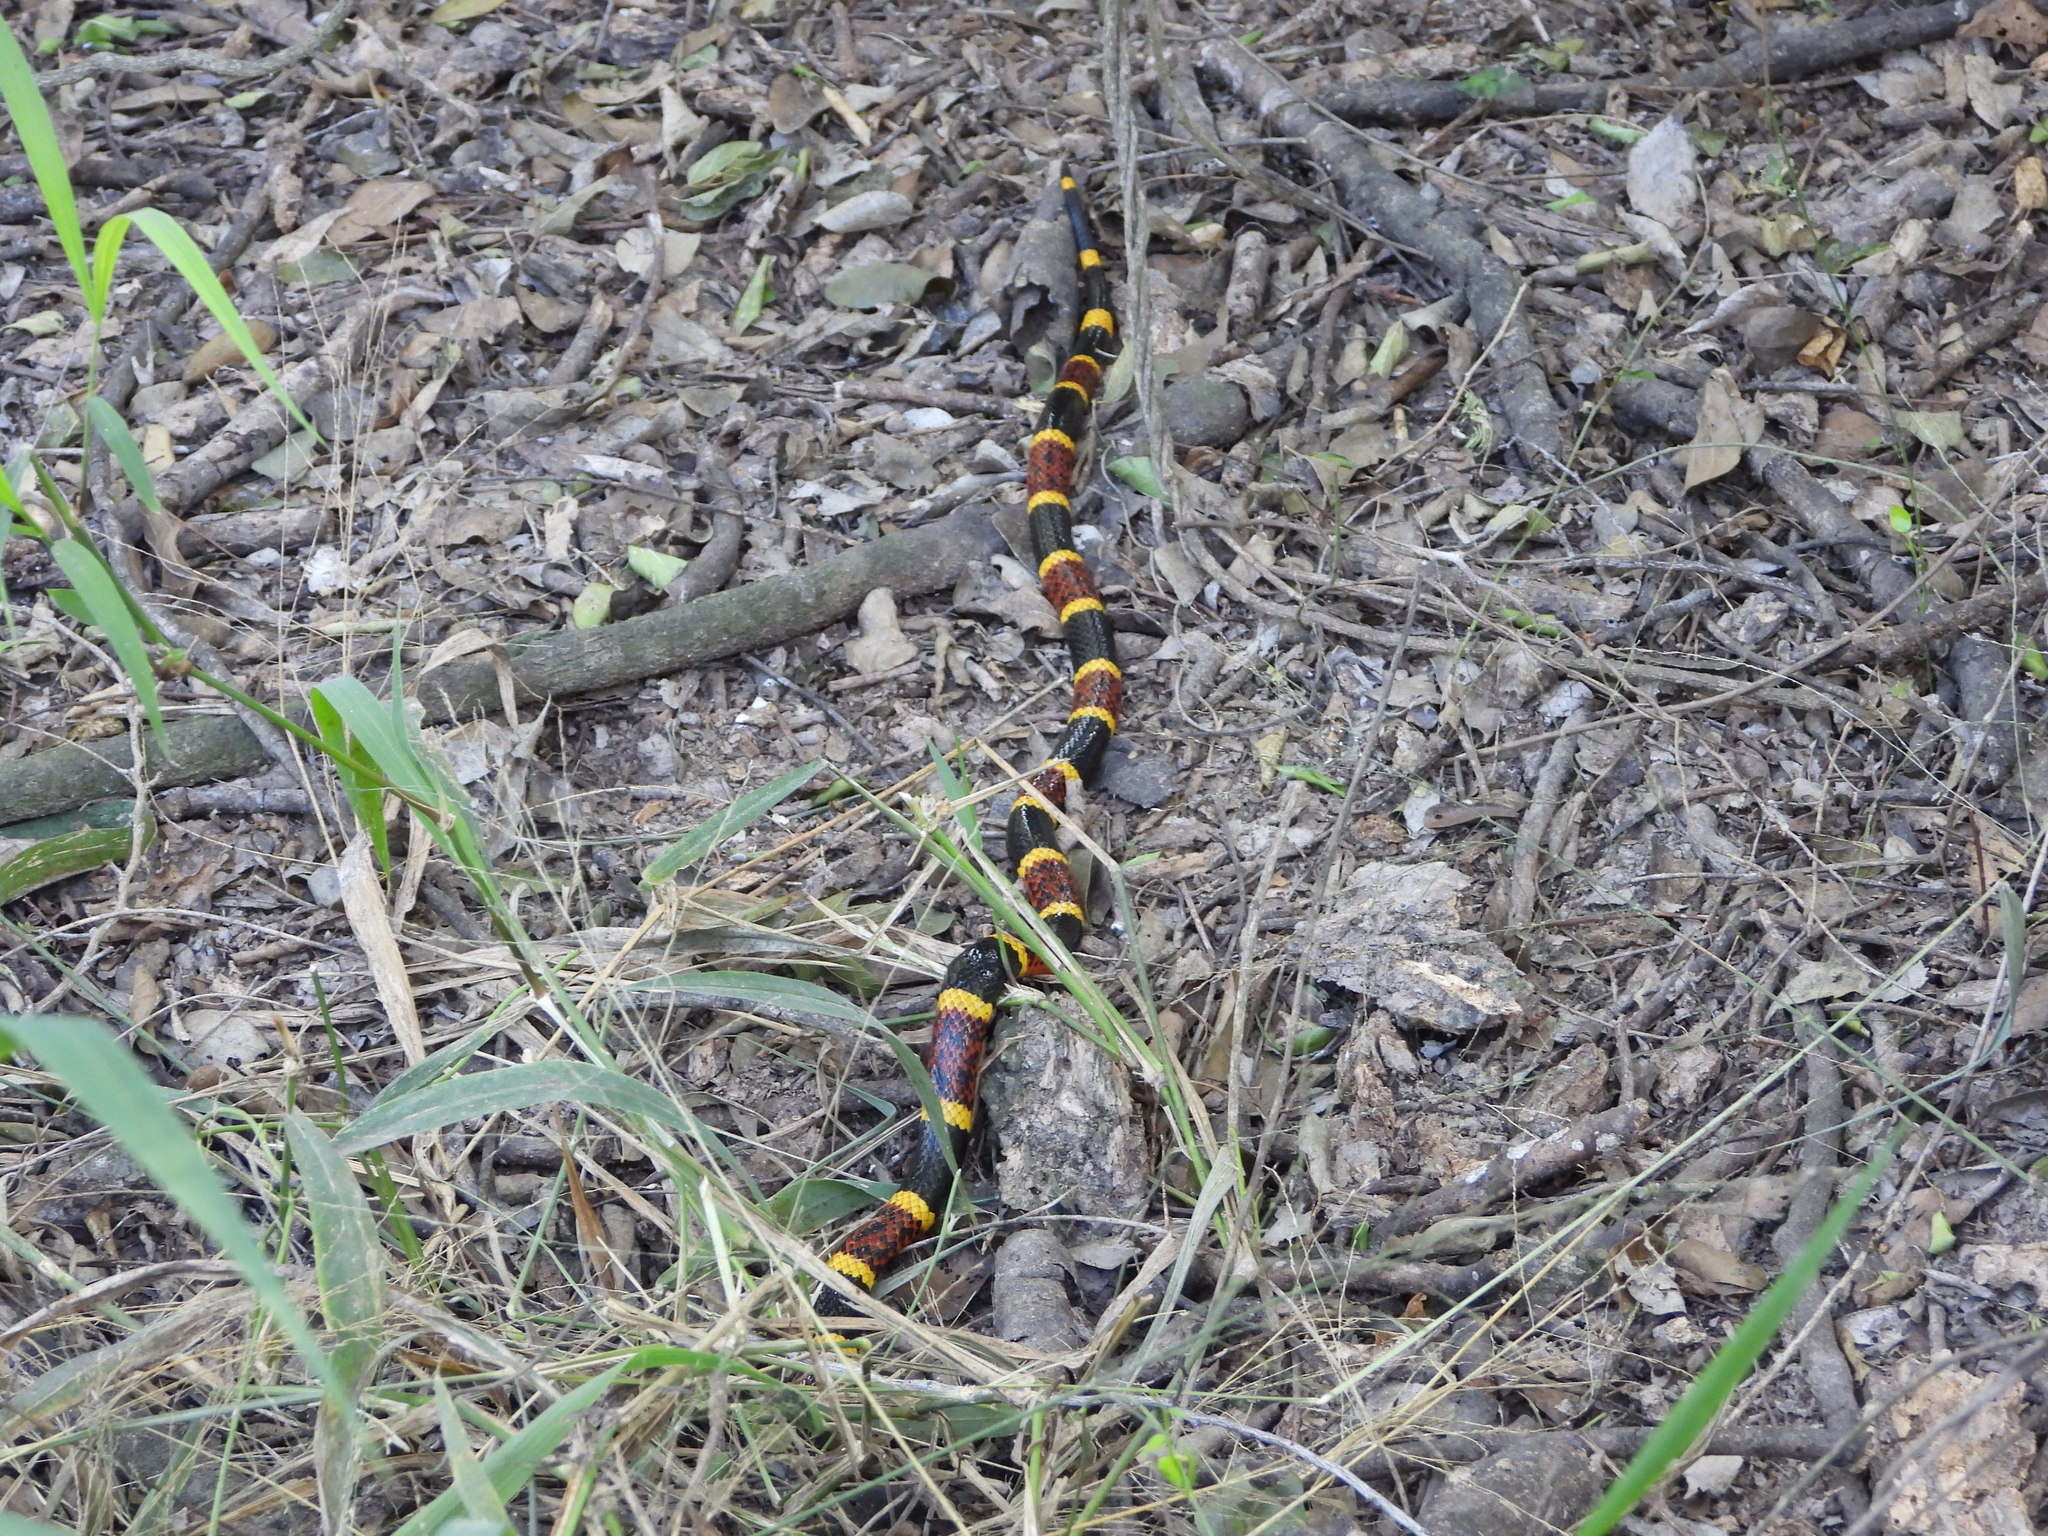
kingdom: Animalia
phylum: Chordata
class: Squamata
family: Elapidae
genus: Micrurus
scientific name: Micrurus tener
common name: Texas coral snake
